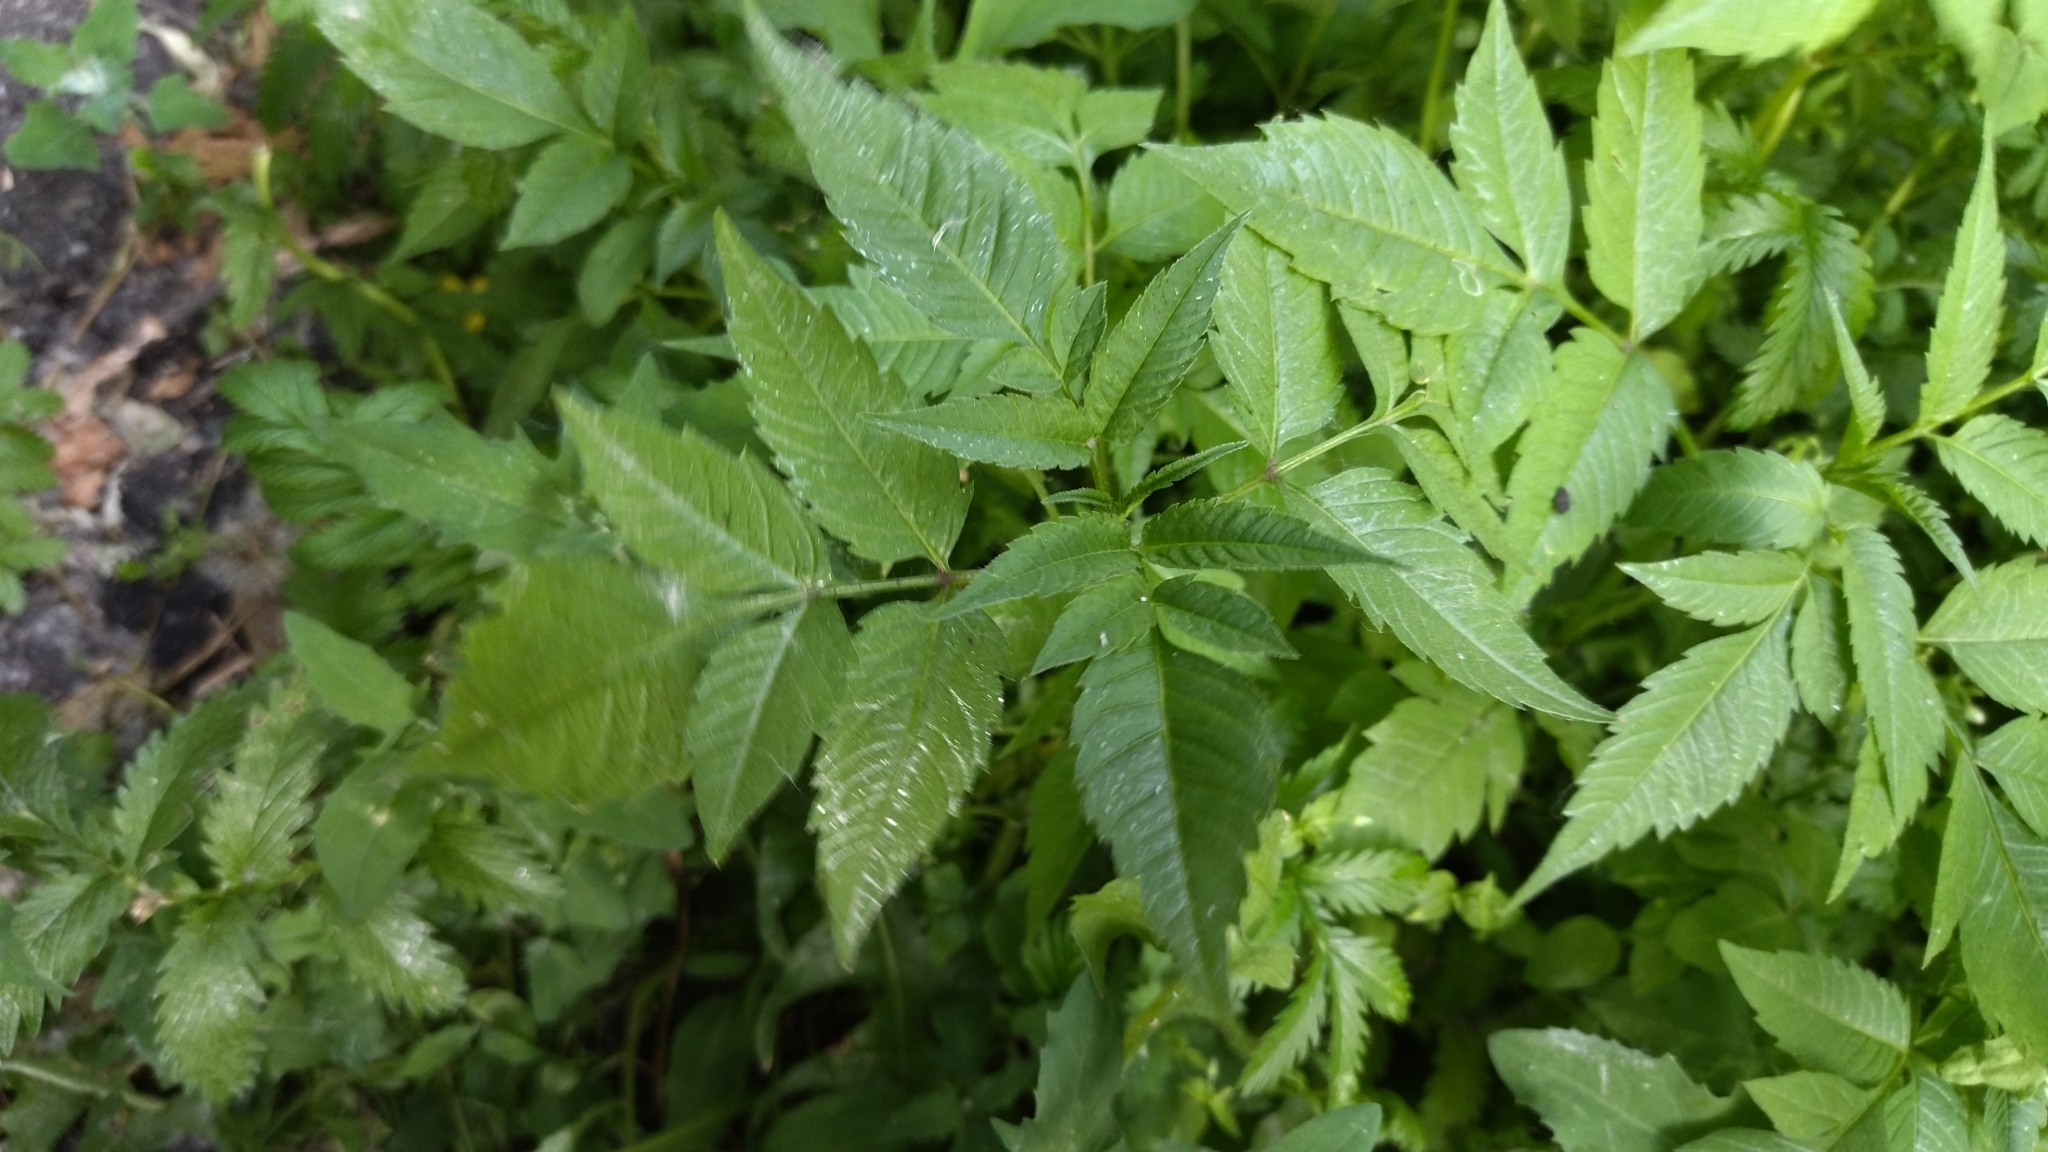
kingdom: Plantae
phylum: Tracheophyta
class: Magnoliopsida
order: Asterales
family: Asteraceae
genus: Bidens
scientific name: Bidens frondosa
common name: Beggarticks
